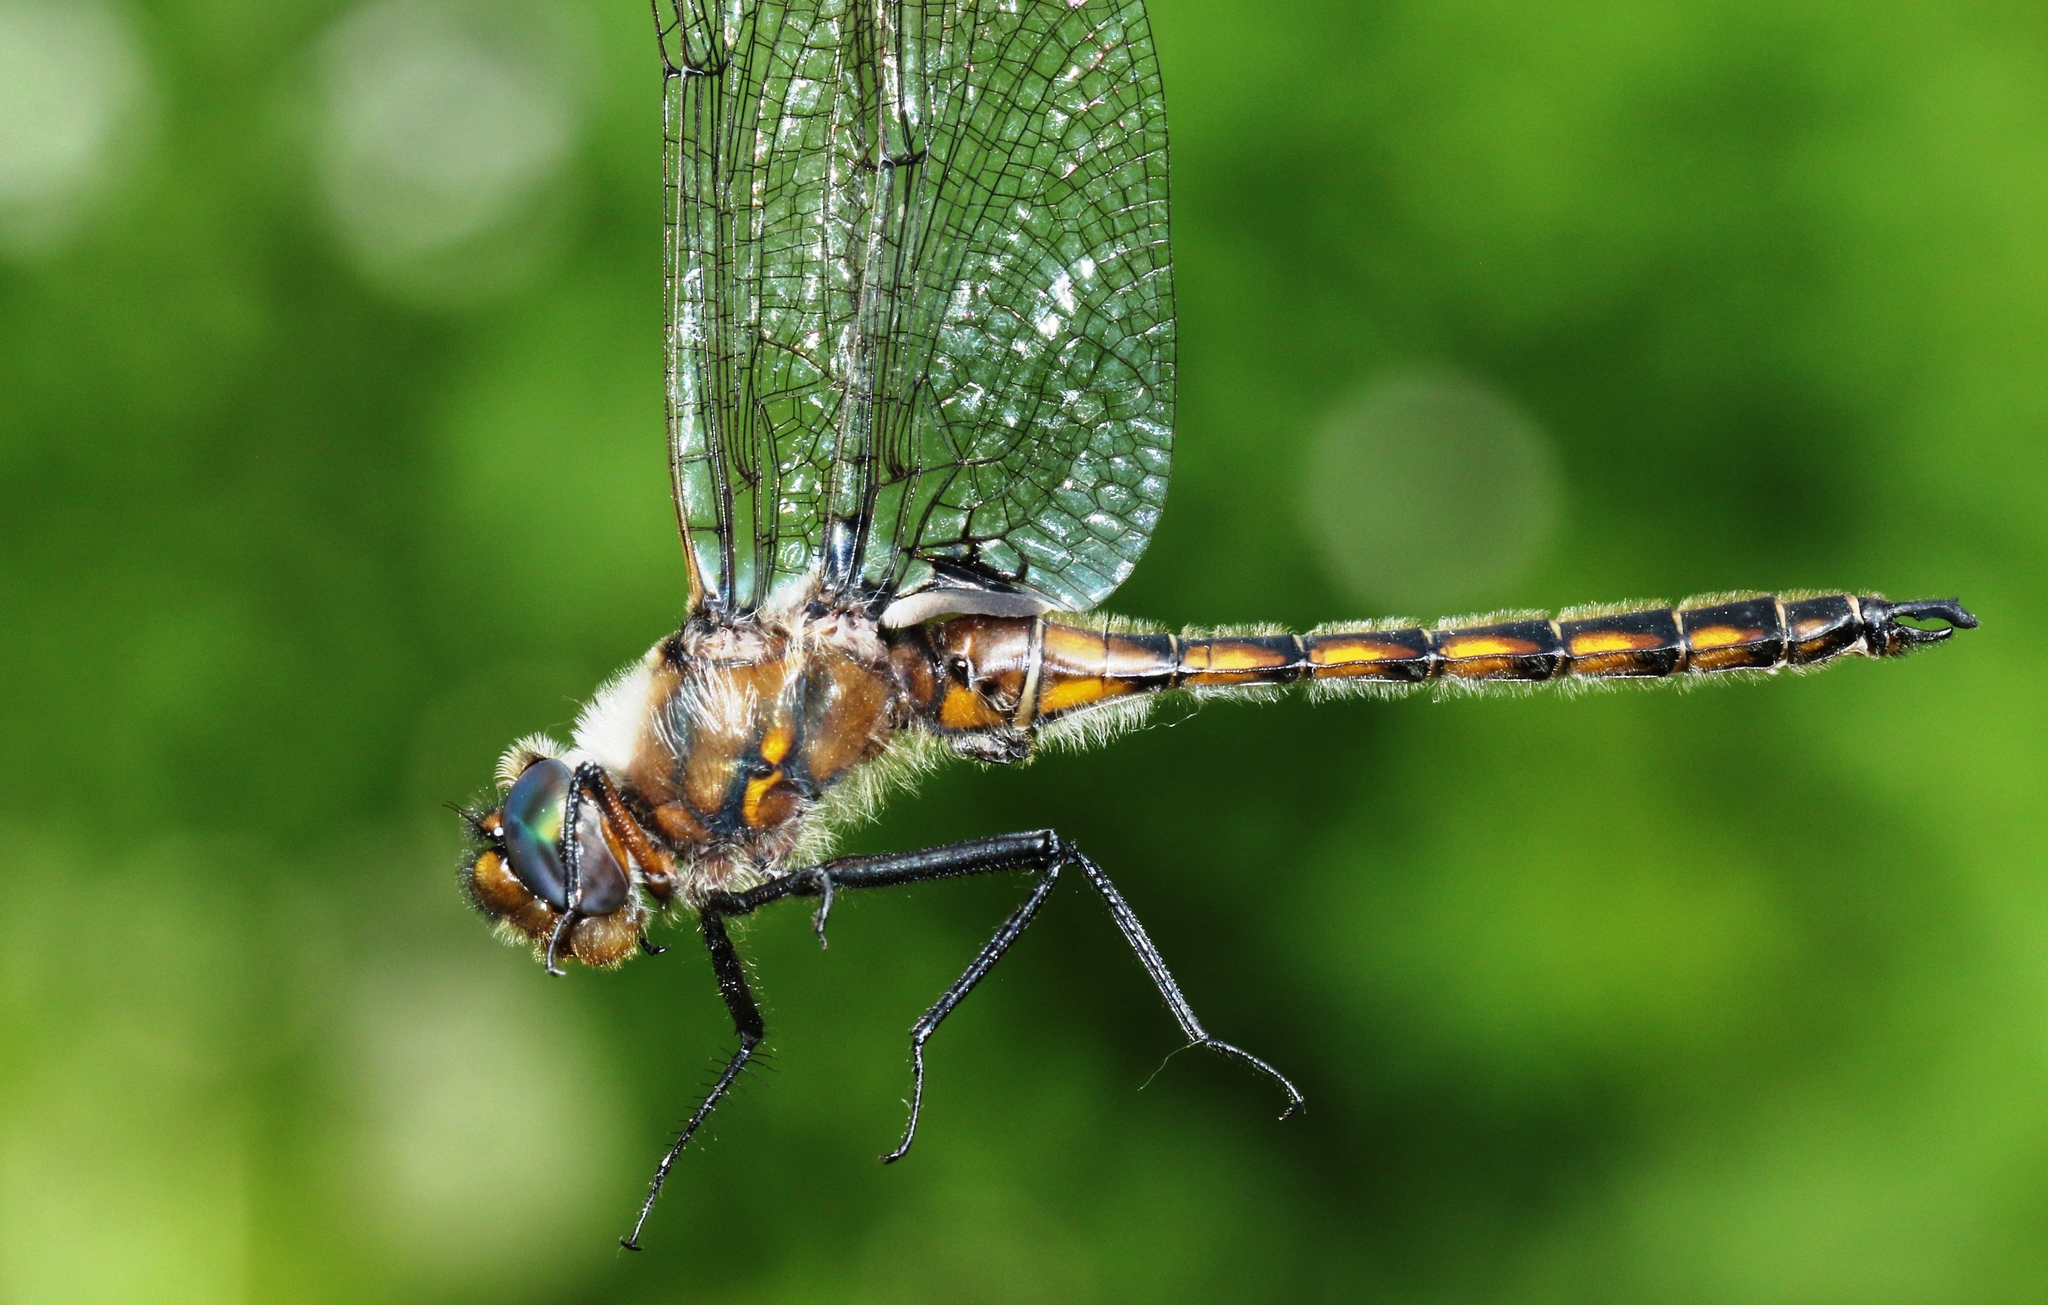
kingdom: Animalia
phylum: Arthropoda
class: Insecta
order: Odonata
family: Corduliidae
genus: Epitheca
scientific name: Epitheca canis
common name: Beaverpond baskettail
